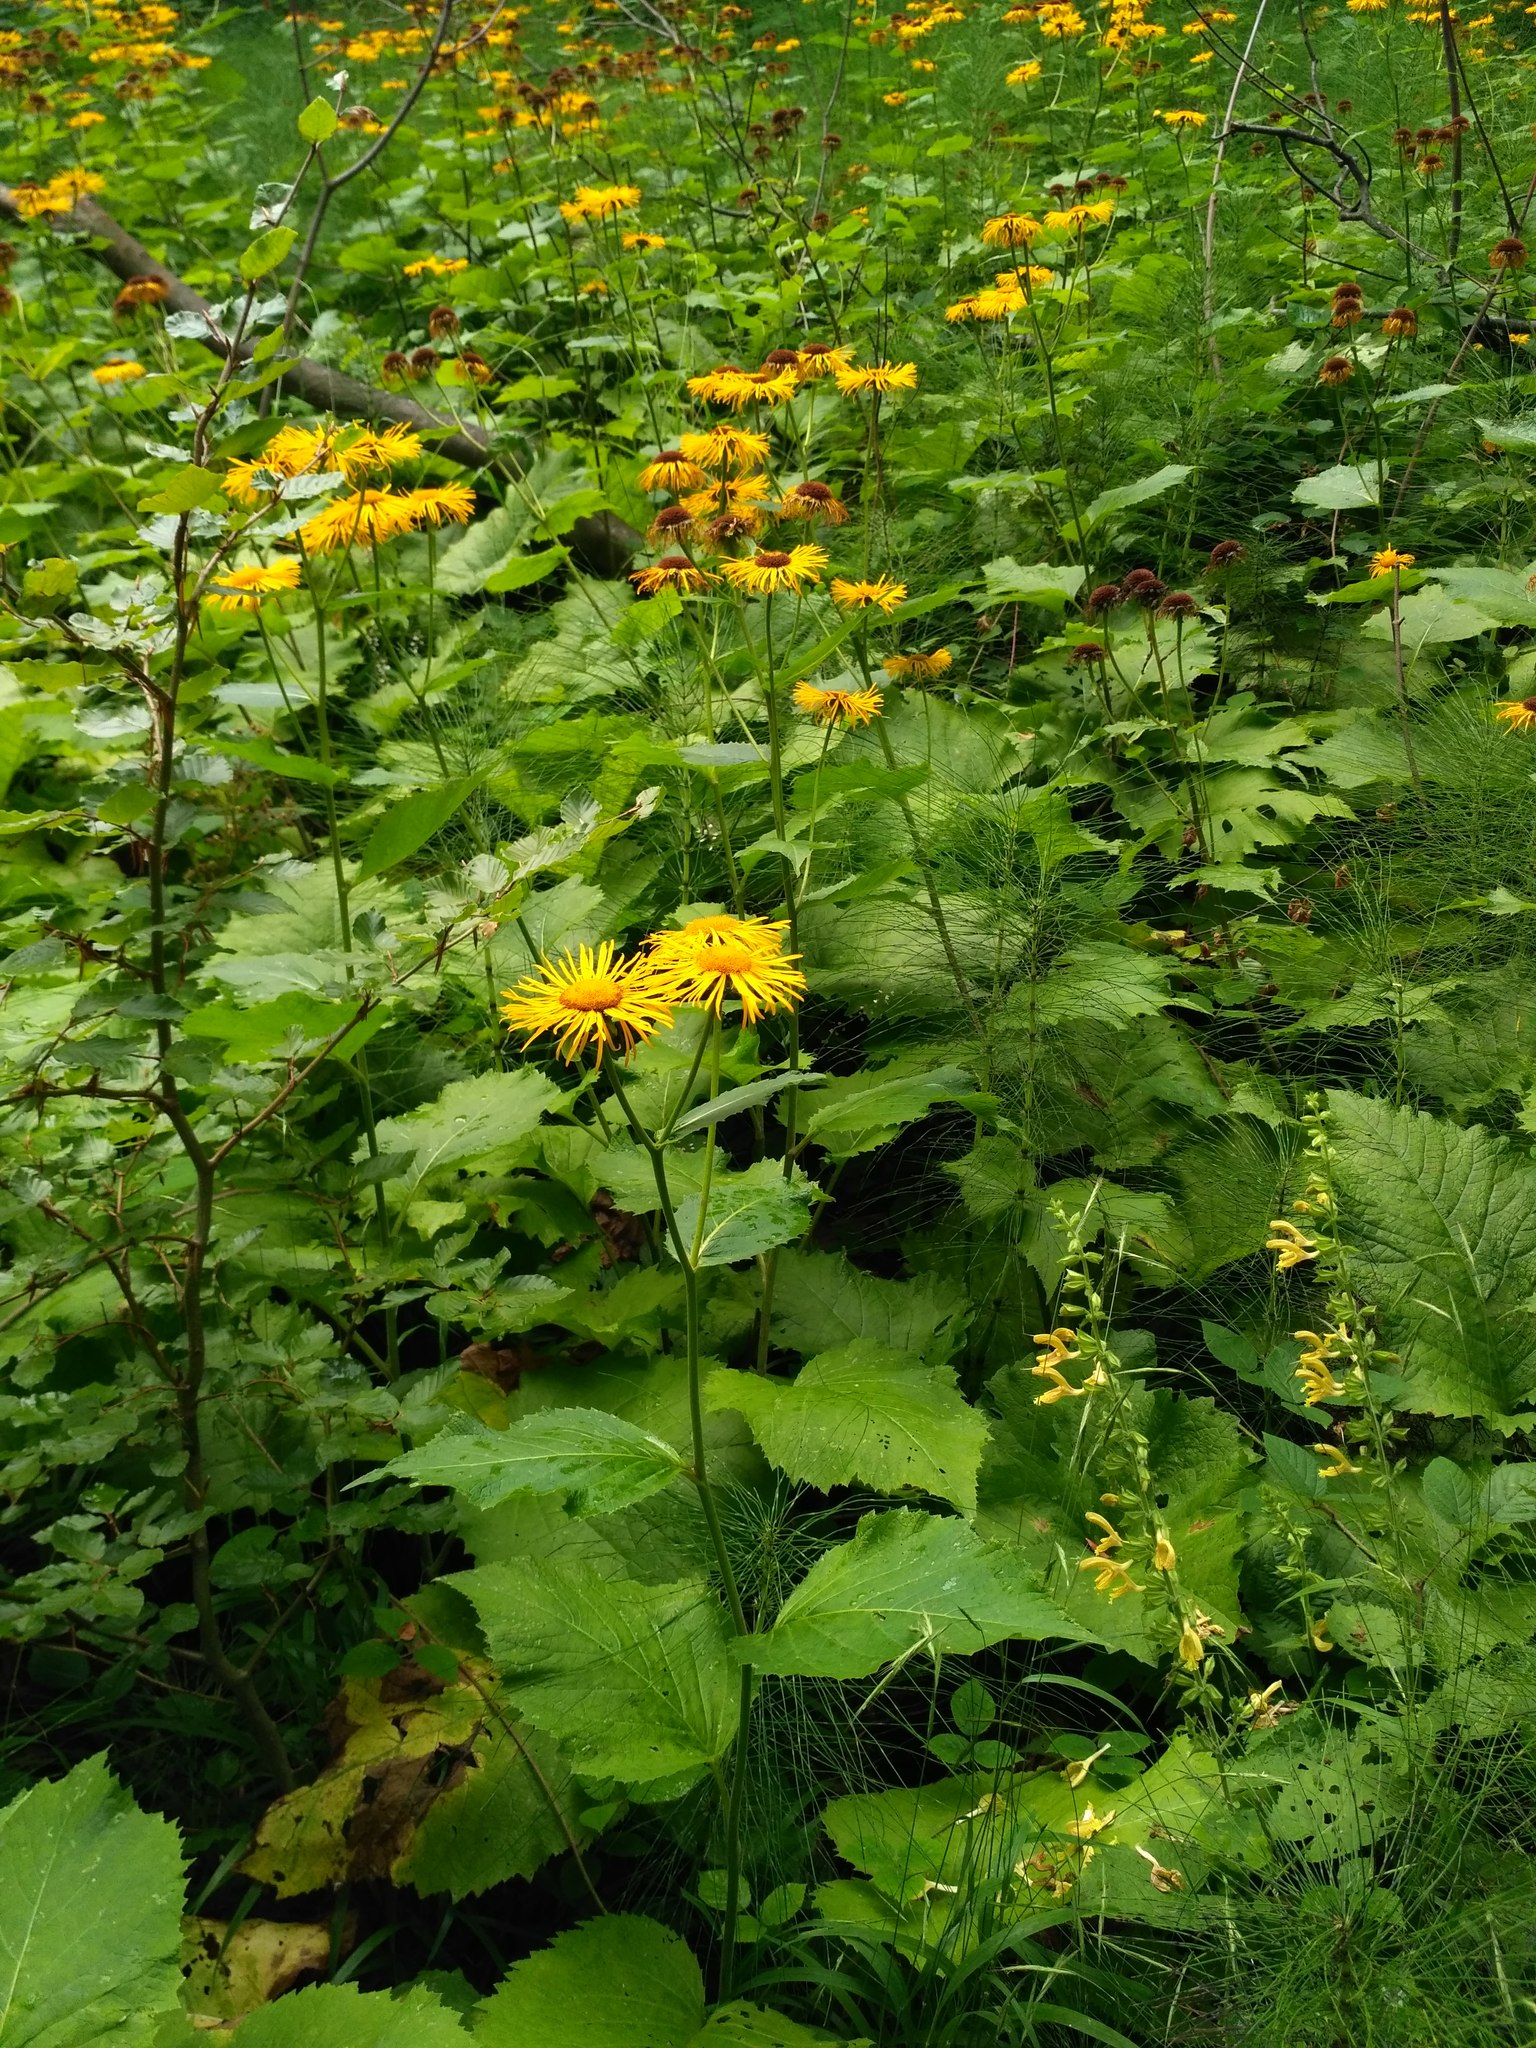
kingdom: Plantae
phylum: Tracheophyta
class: Magnoliopsida
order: Asterales
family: Asteraceae
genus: Telekia
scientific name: Telekia speciosa
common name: Yellow oxeye
